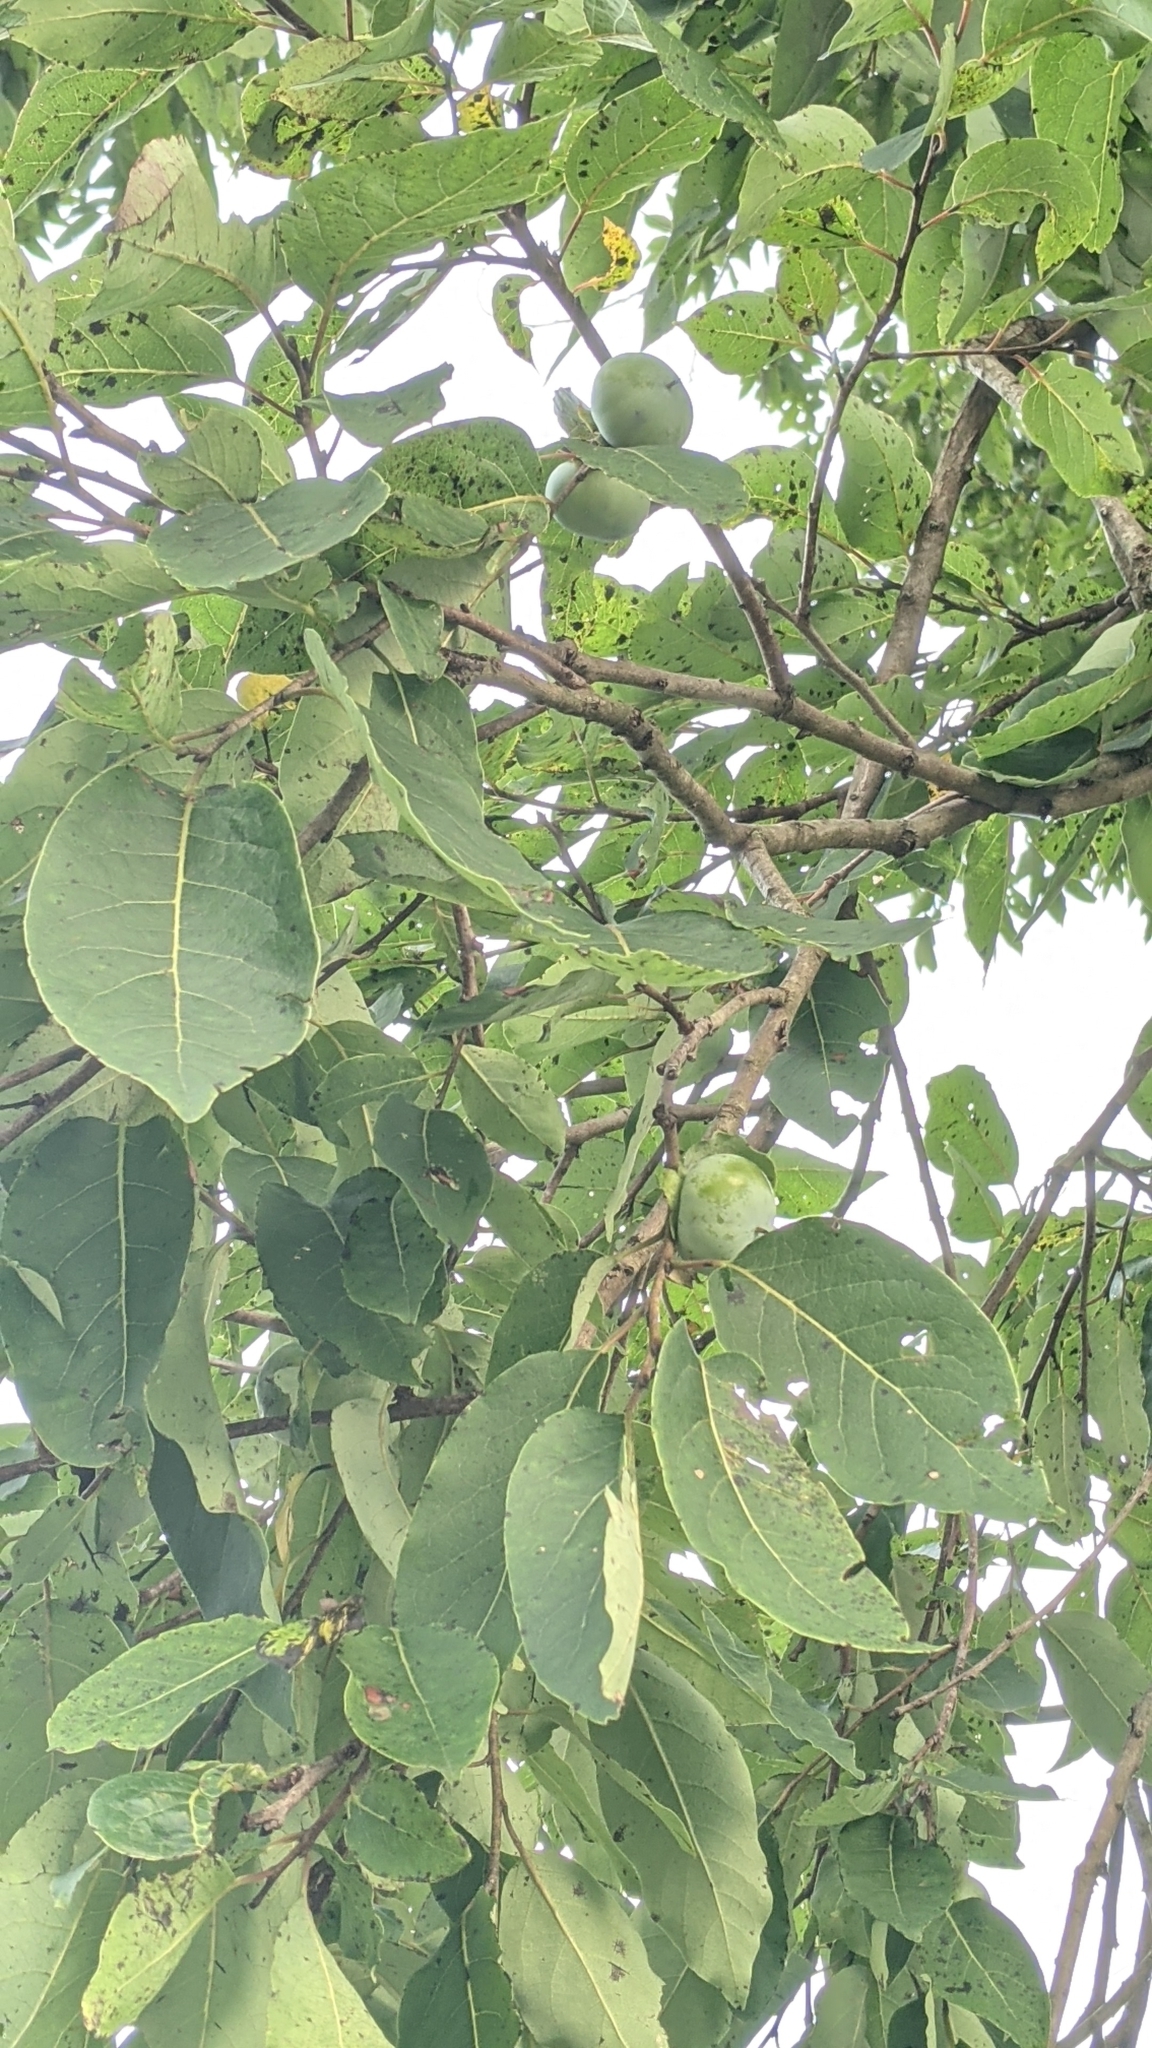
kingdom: Plantae
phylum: Tracheophyta
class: Magnoliopsida
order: Ericales
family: Ebenaceae
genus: Diospyros
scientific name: Diospyros virginiana
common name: Persimmon
